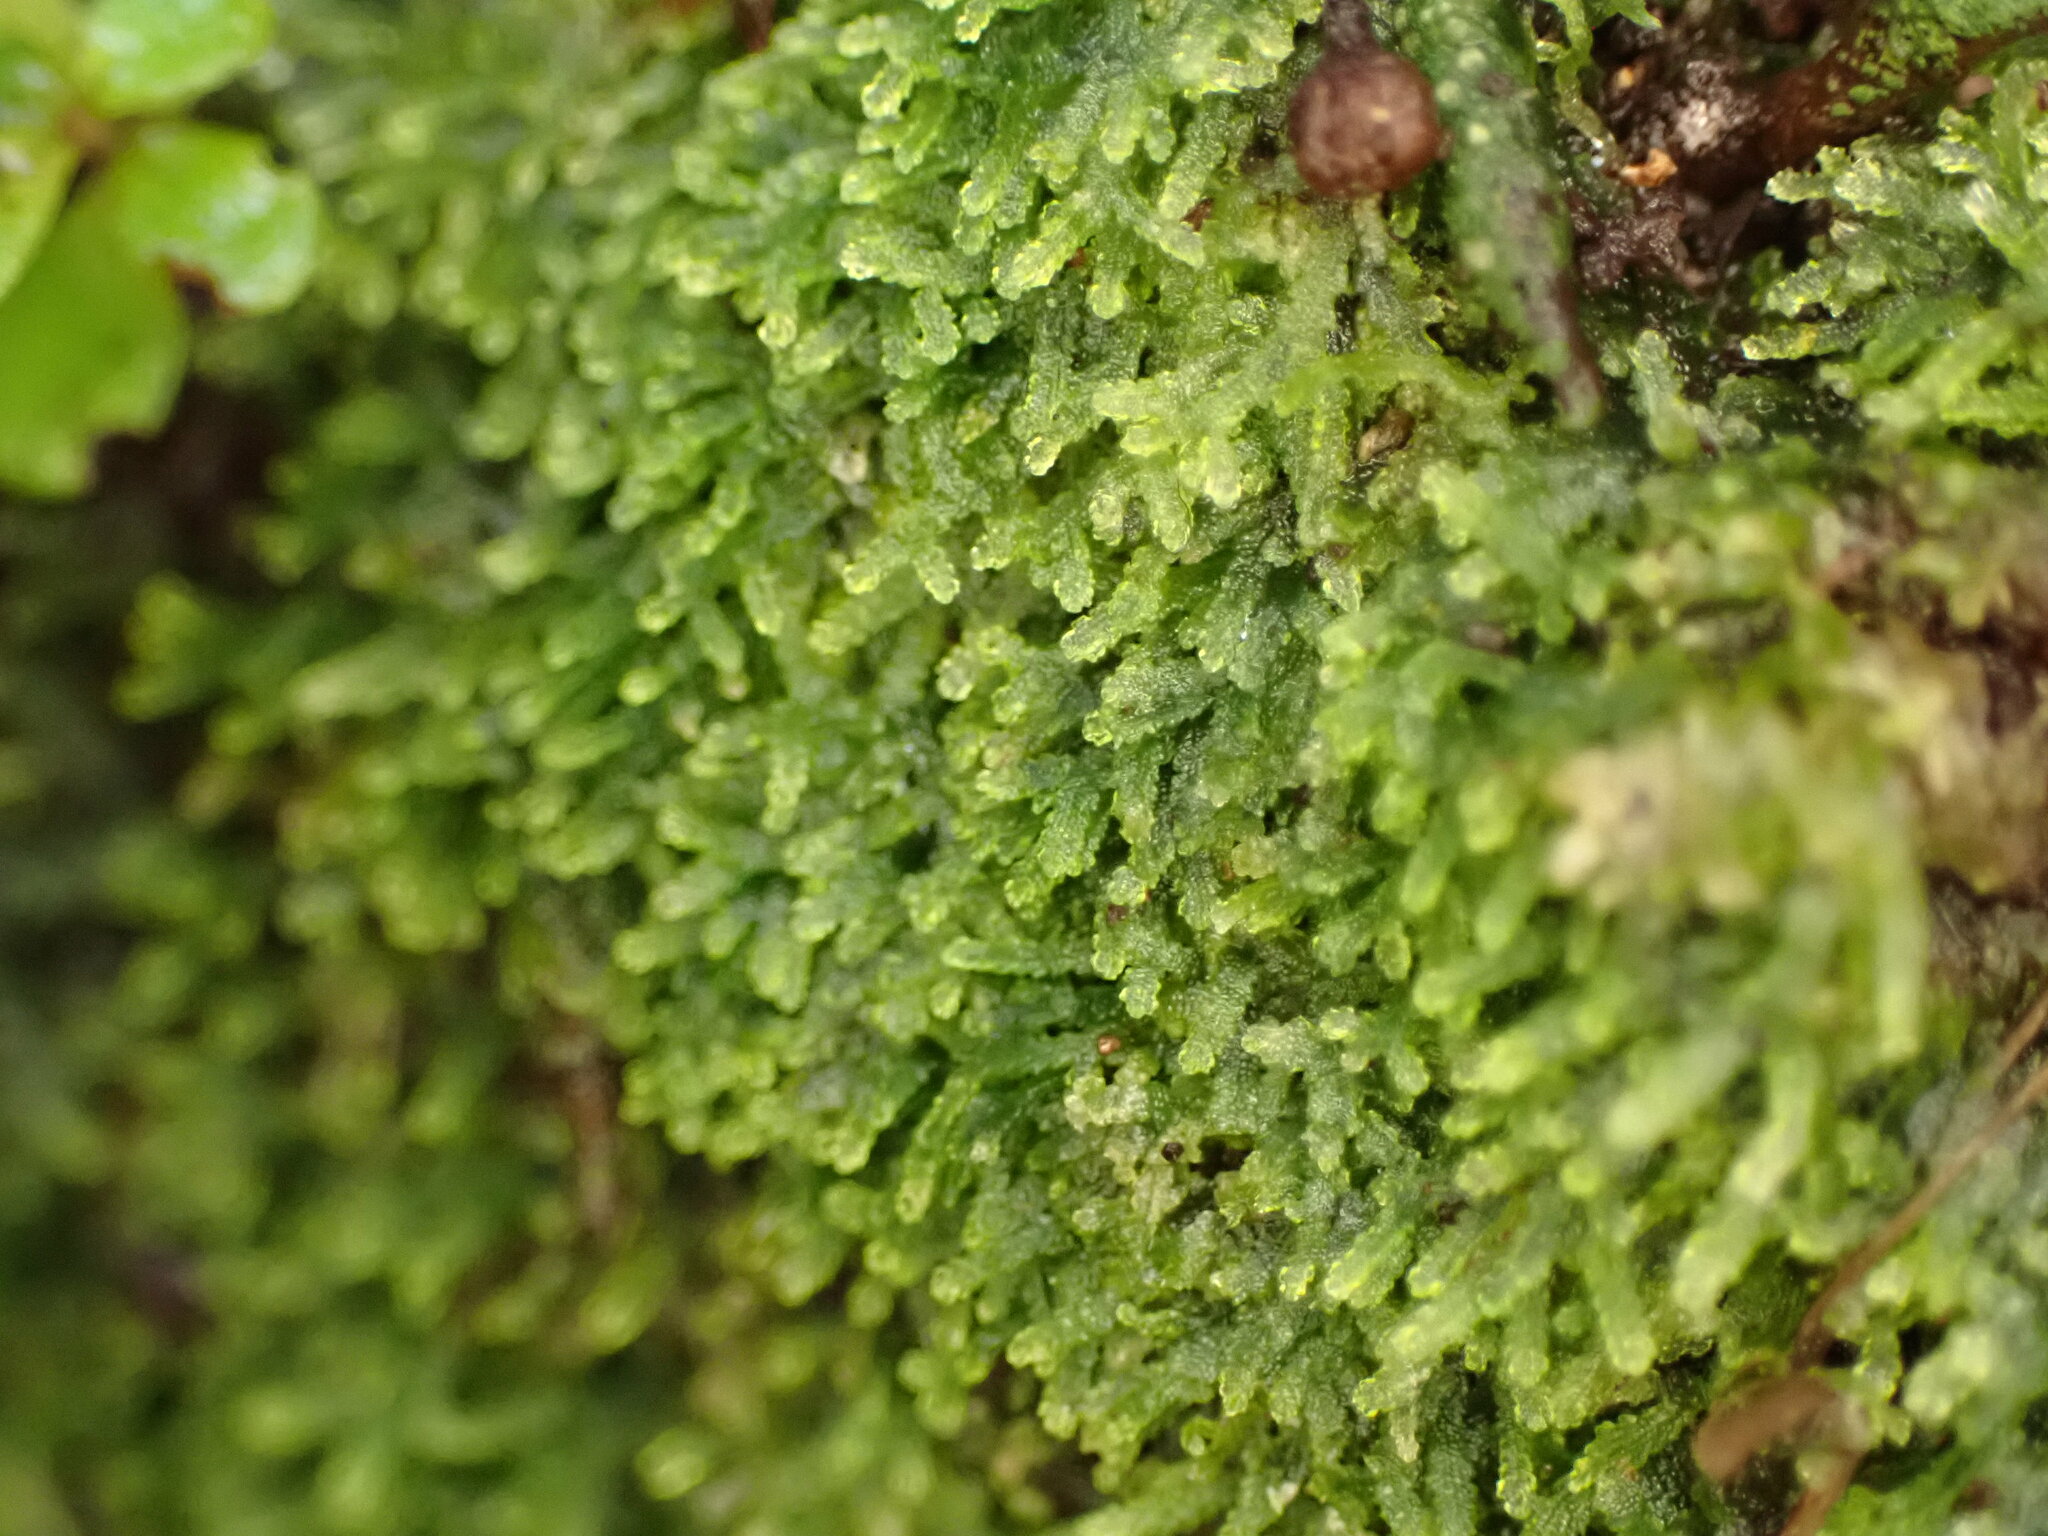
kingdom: Plantae
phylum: Marchantiophyta
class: Jungermanniopsida
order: Jungermanniales
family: Lepidoziaceae
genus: Zoopsis
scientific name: Zoopsis argentea
